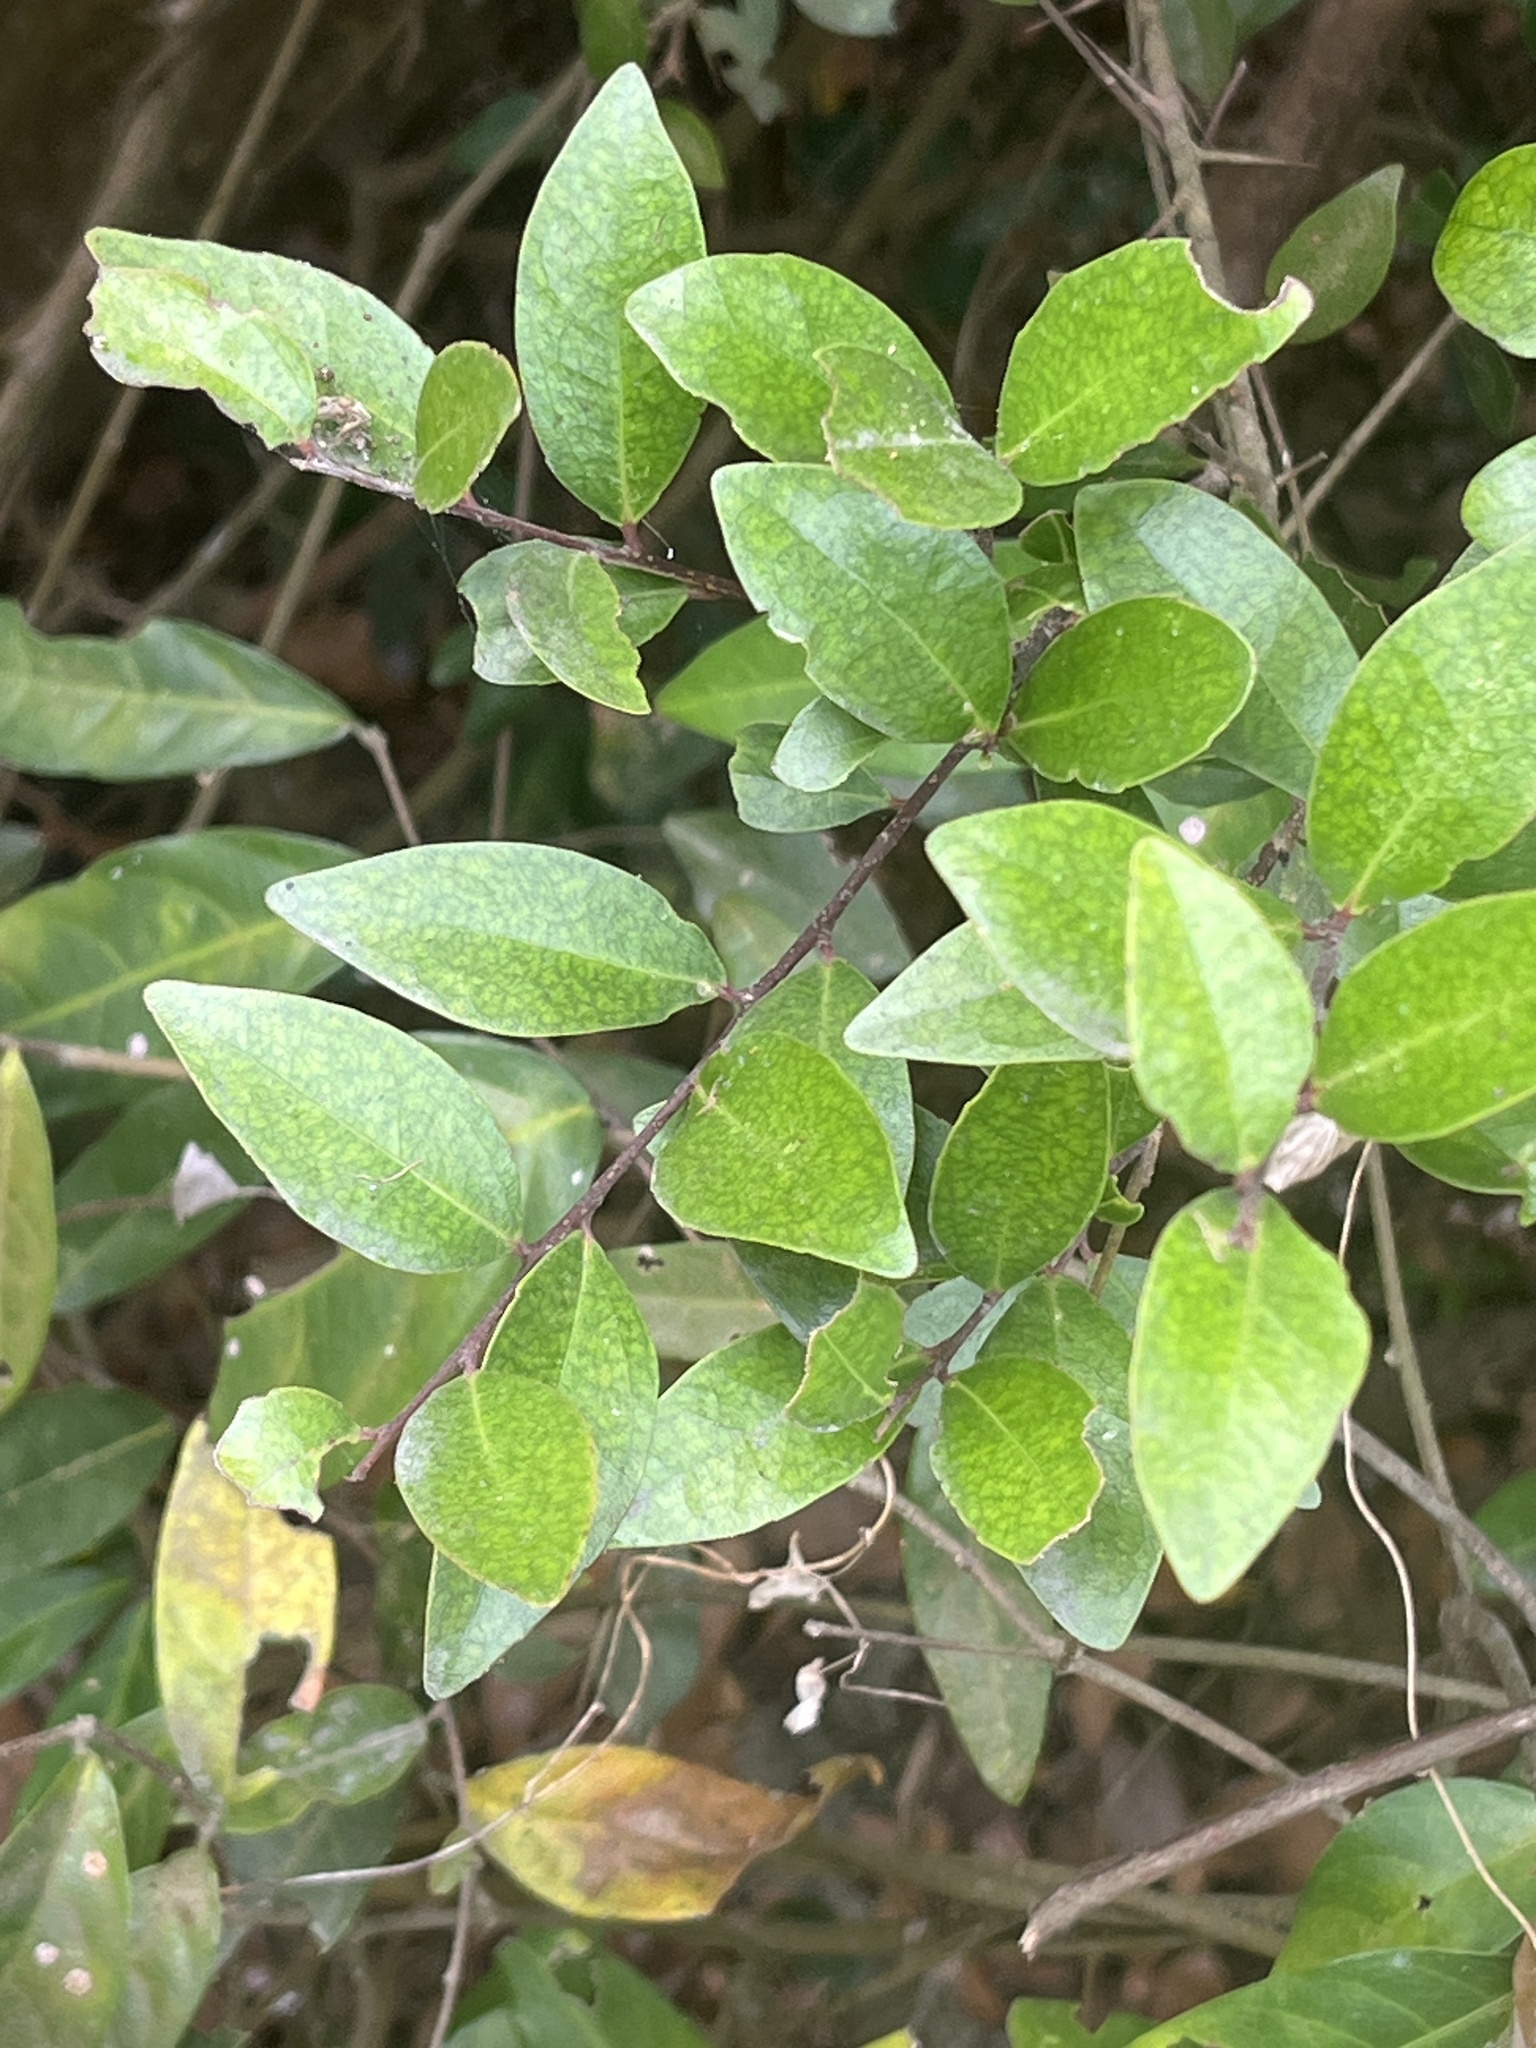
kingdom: Plantae
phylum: Tracheophyta
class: Magnoliopsida
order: Malpighiales
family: Salicaceae
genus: Scolopia
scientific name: Scolopia oldhamii
